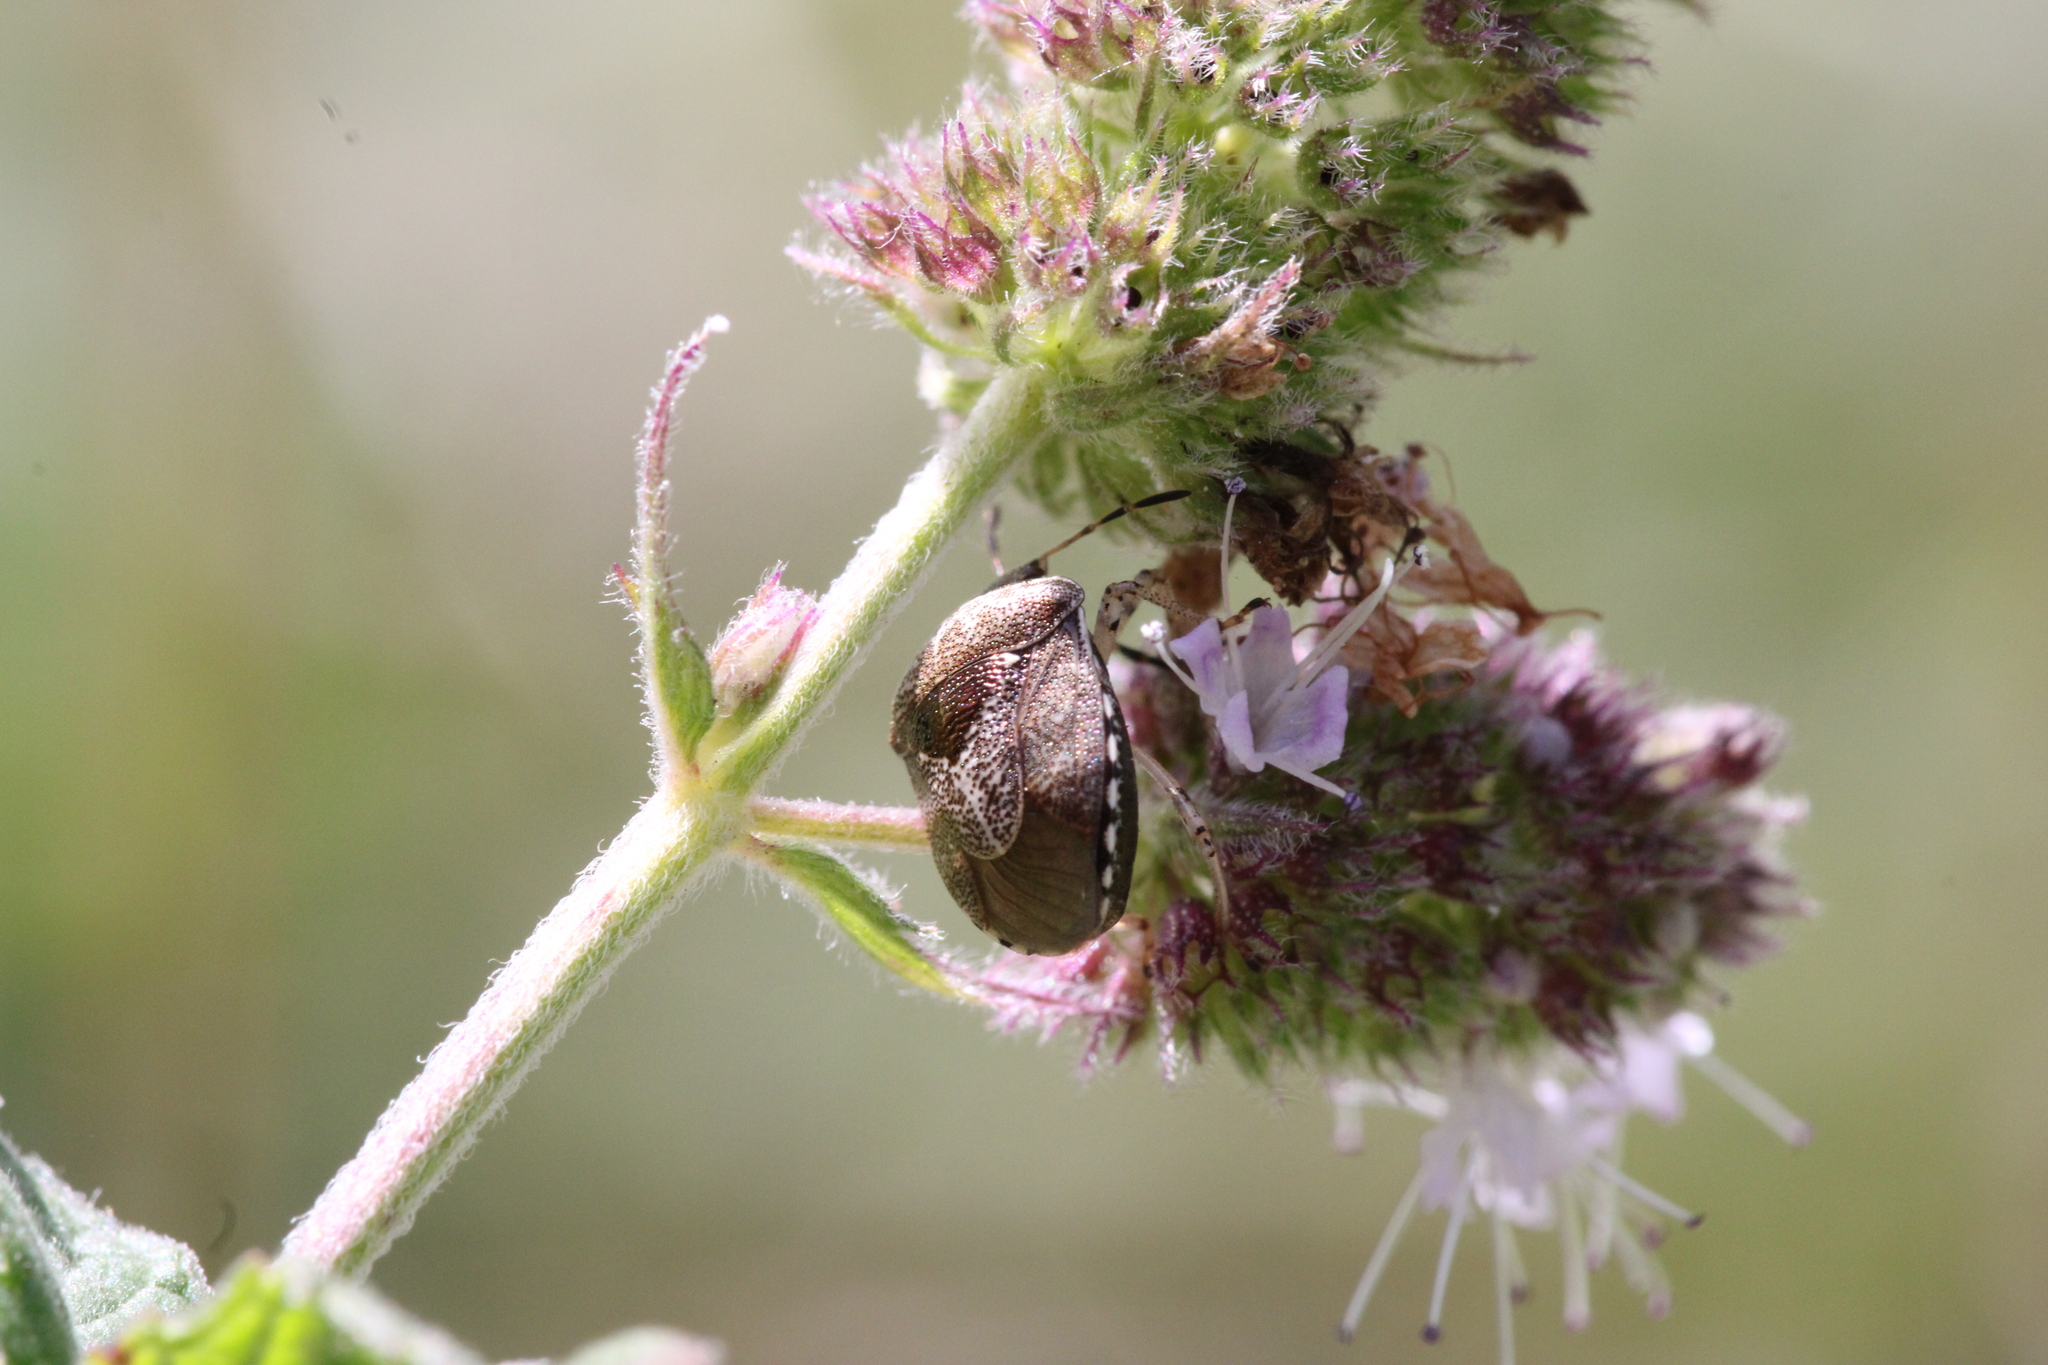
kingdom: Animalia
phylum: Arthropoda
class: Insecta
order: Hemiptera
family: Pentatomidae
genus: Eysarcoris
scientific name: Eysarcoris venustissimus
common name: Woundwort shieldbug
